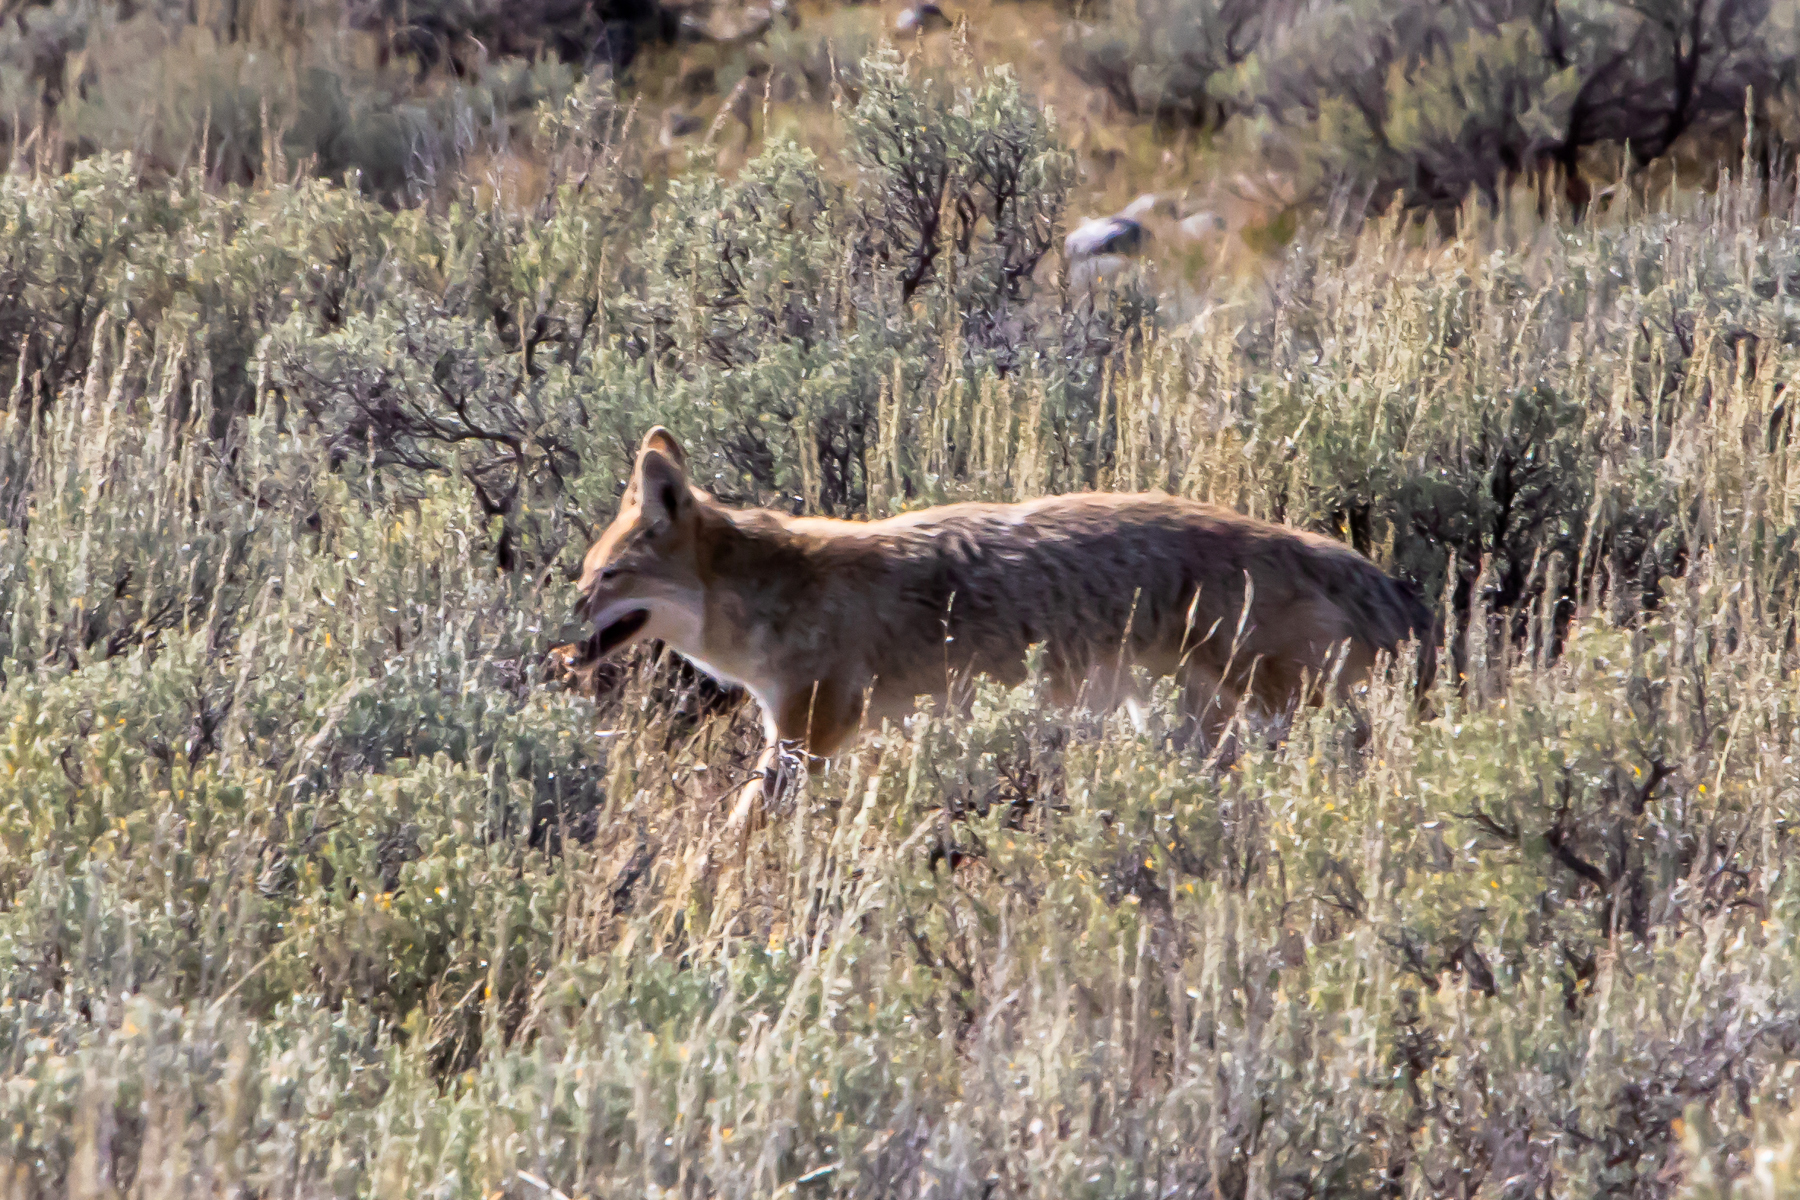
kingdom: Animalia
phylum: Chordata
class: Mammalia
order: Carnivora
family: Canidae
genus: Canis
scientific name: Canis latrans
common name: Coyote
